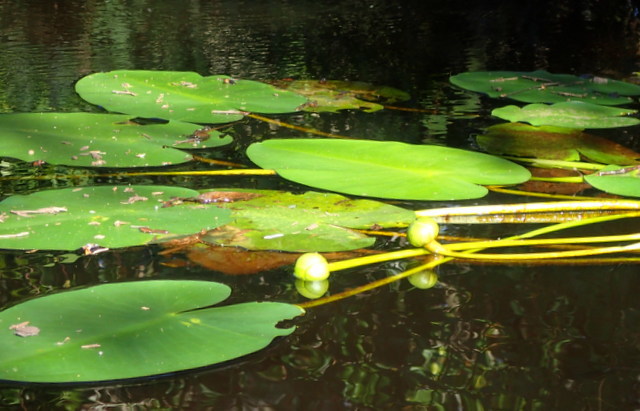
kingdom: Plantae
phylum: Tracheophyta
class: Magnoliopsida
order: Nymphaeales
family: Nymphaeaceae
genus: Nuphar
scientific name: Nuphar advena
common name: Spatter-dock
